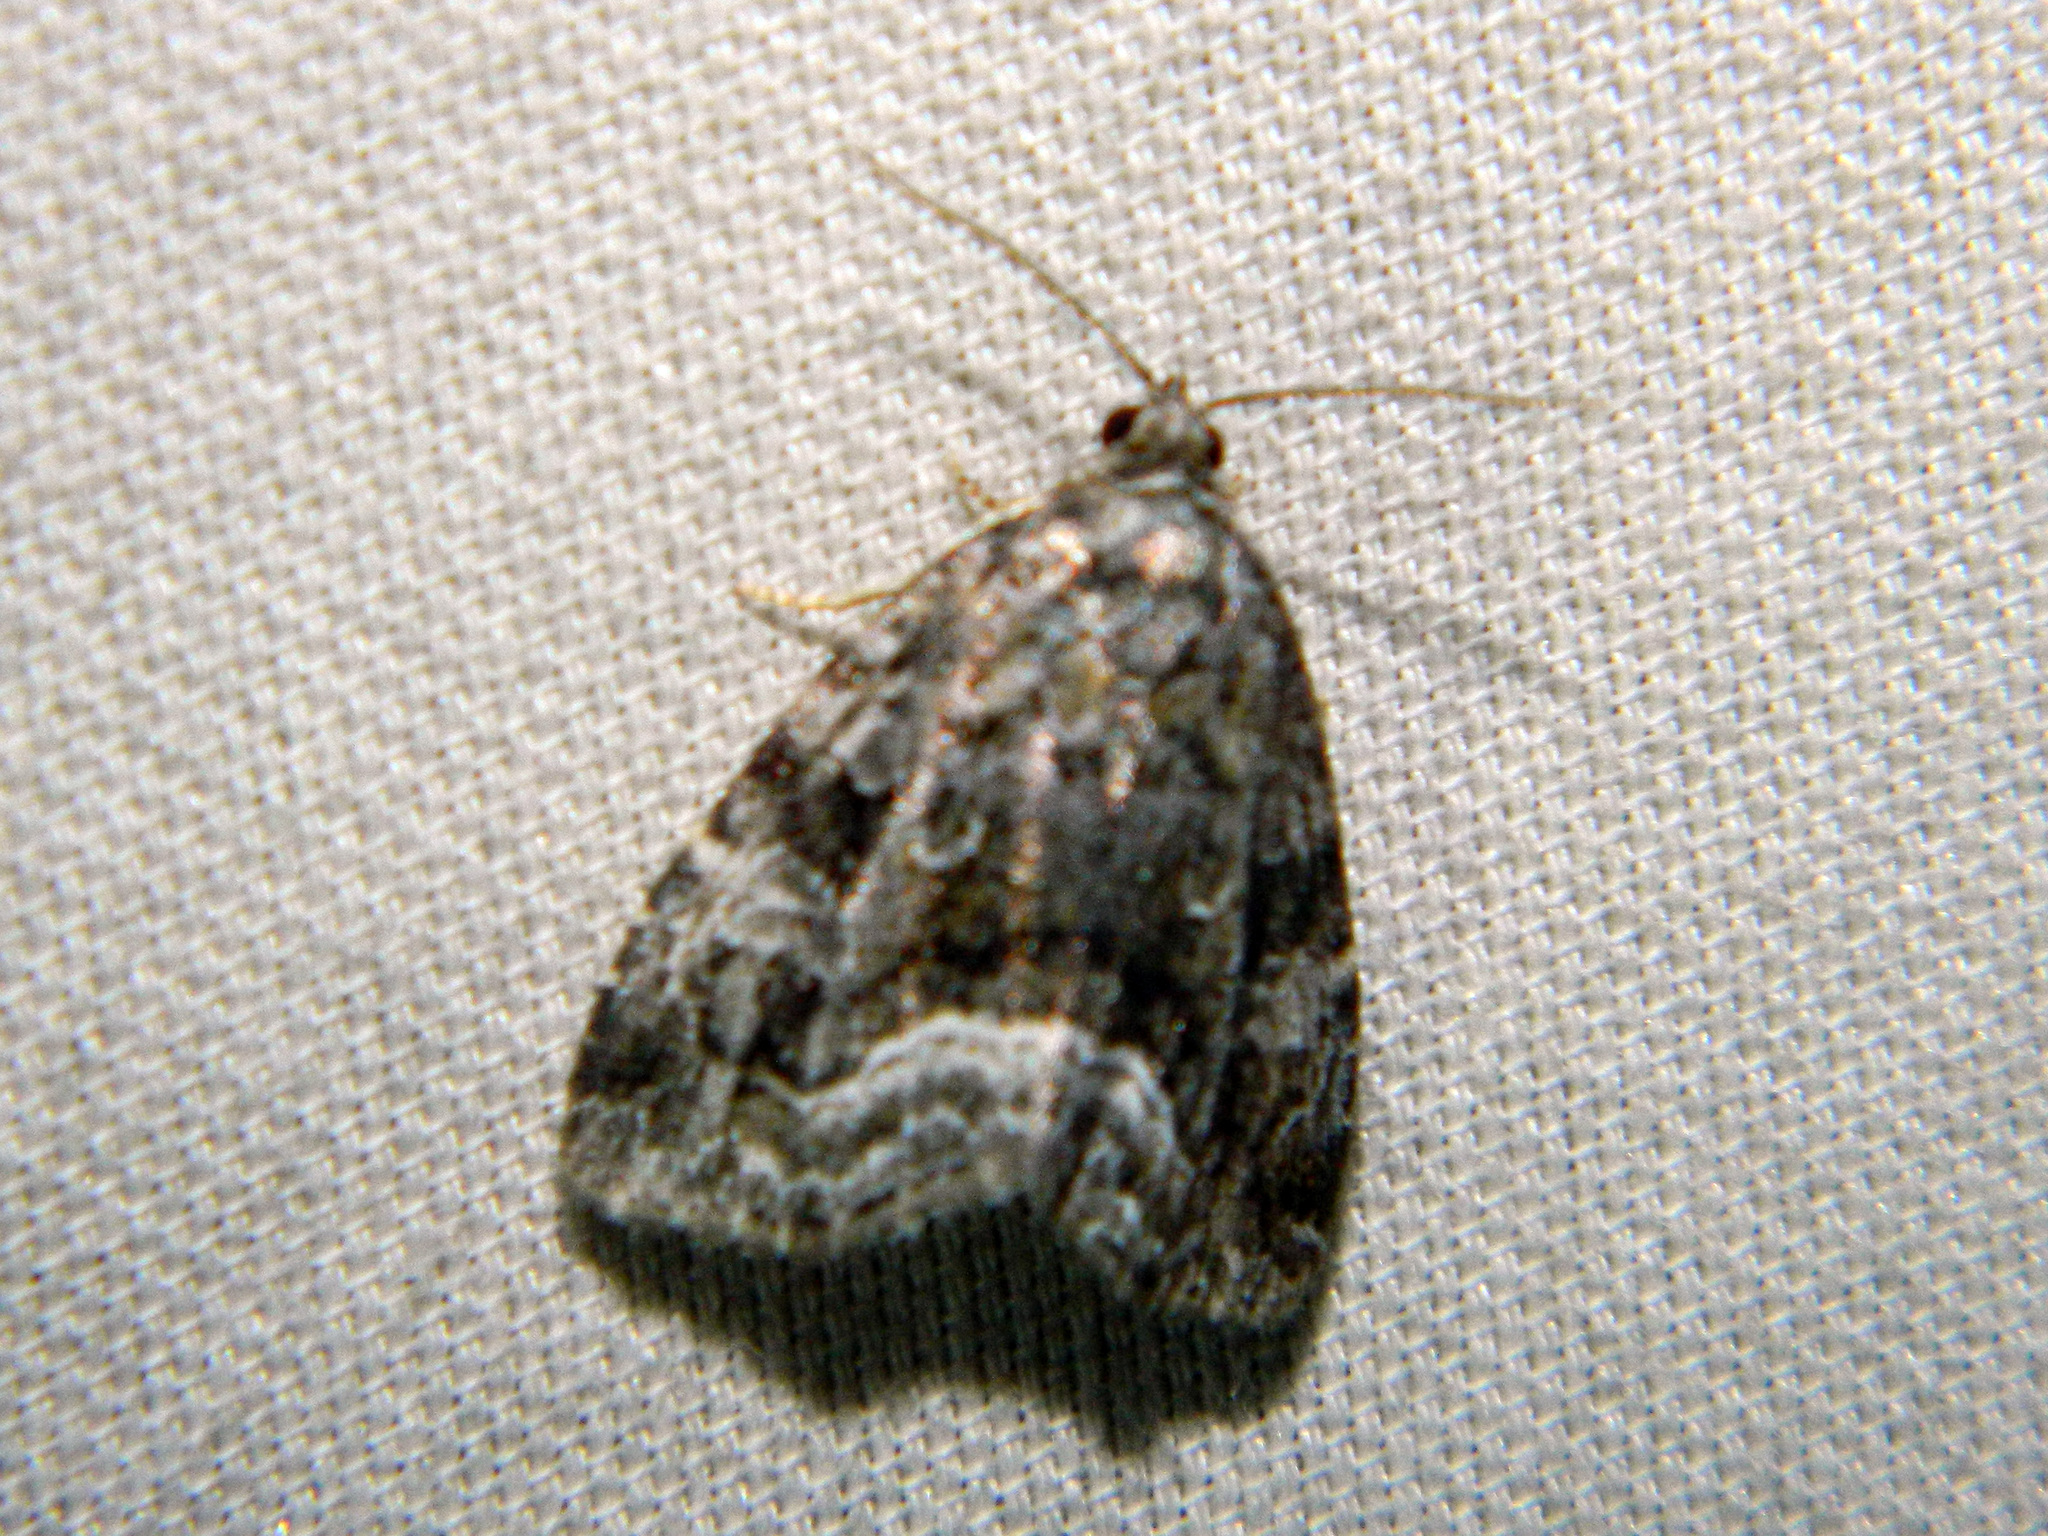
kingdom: Animalia
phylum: Arthropoda
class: Insecta
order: Lepidoptera
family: Noctuidae
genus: Protodeltote
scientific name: Protodeltote muscosula
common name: Large mossy glyph
